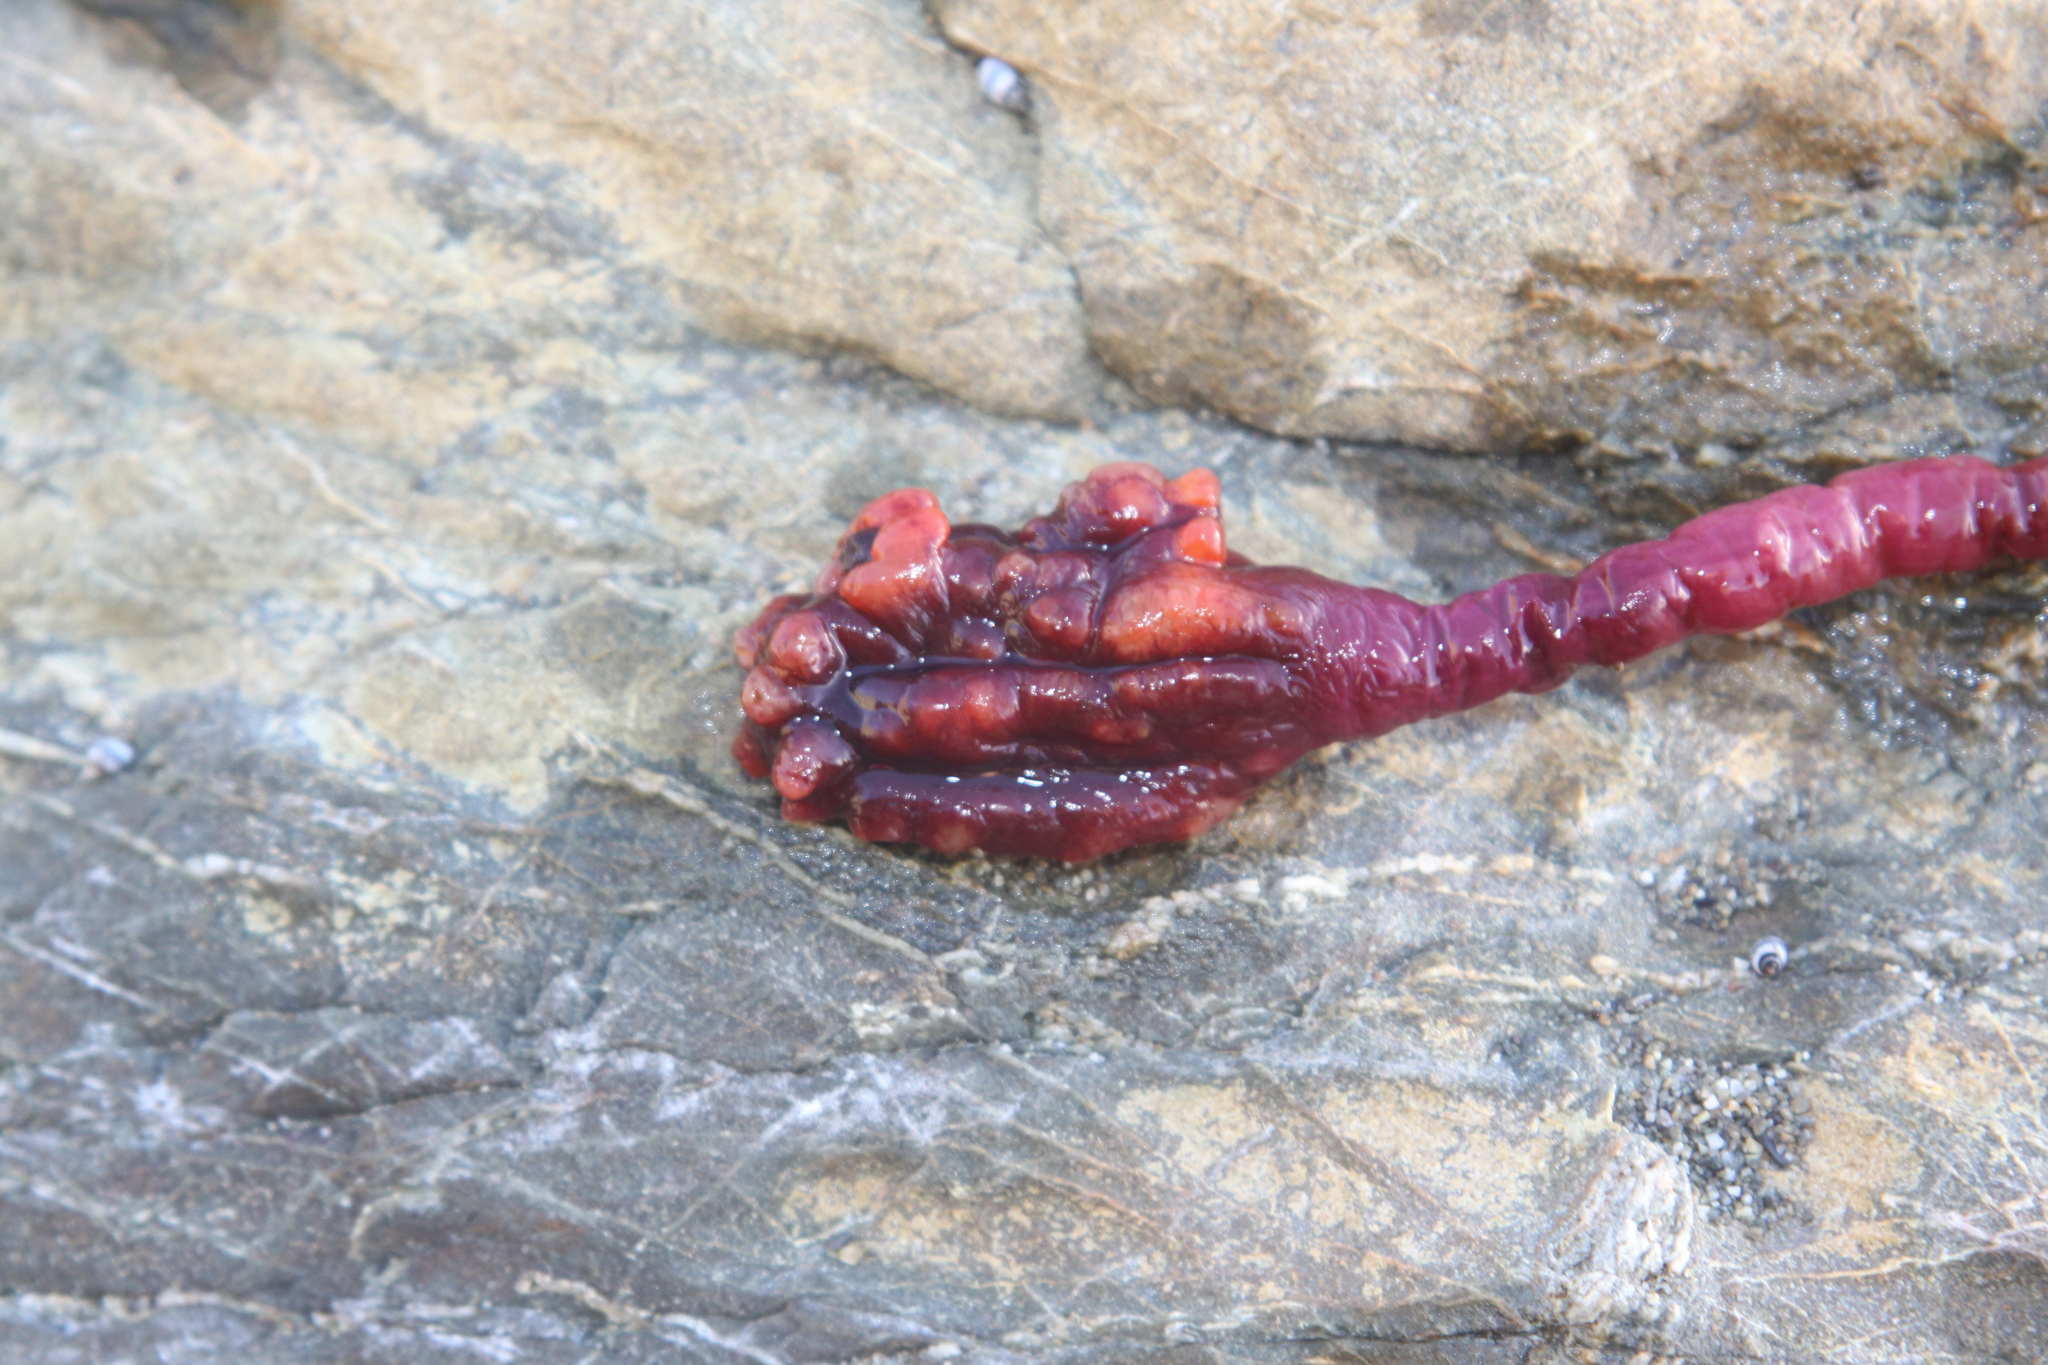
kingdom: Animalia
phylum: Chordata
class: Ascidiacea
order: Stolidobranchia
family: Pyuridae
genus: Pyura
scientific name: Pyura pachydermatina
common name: Sea tulip
